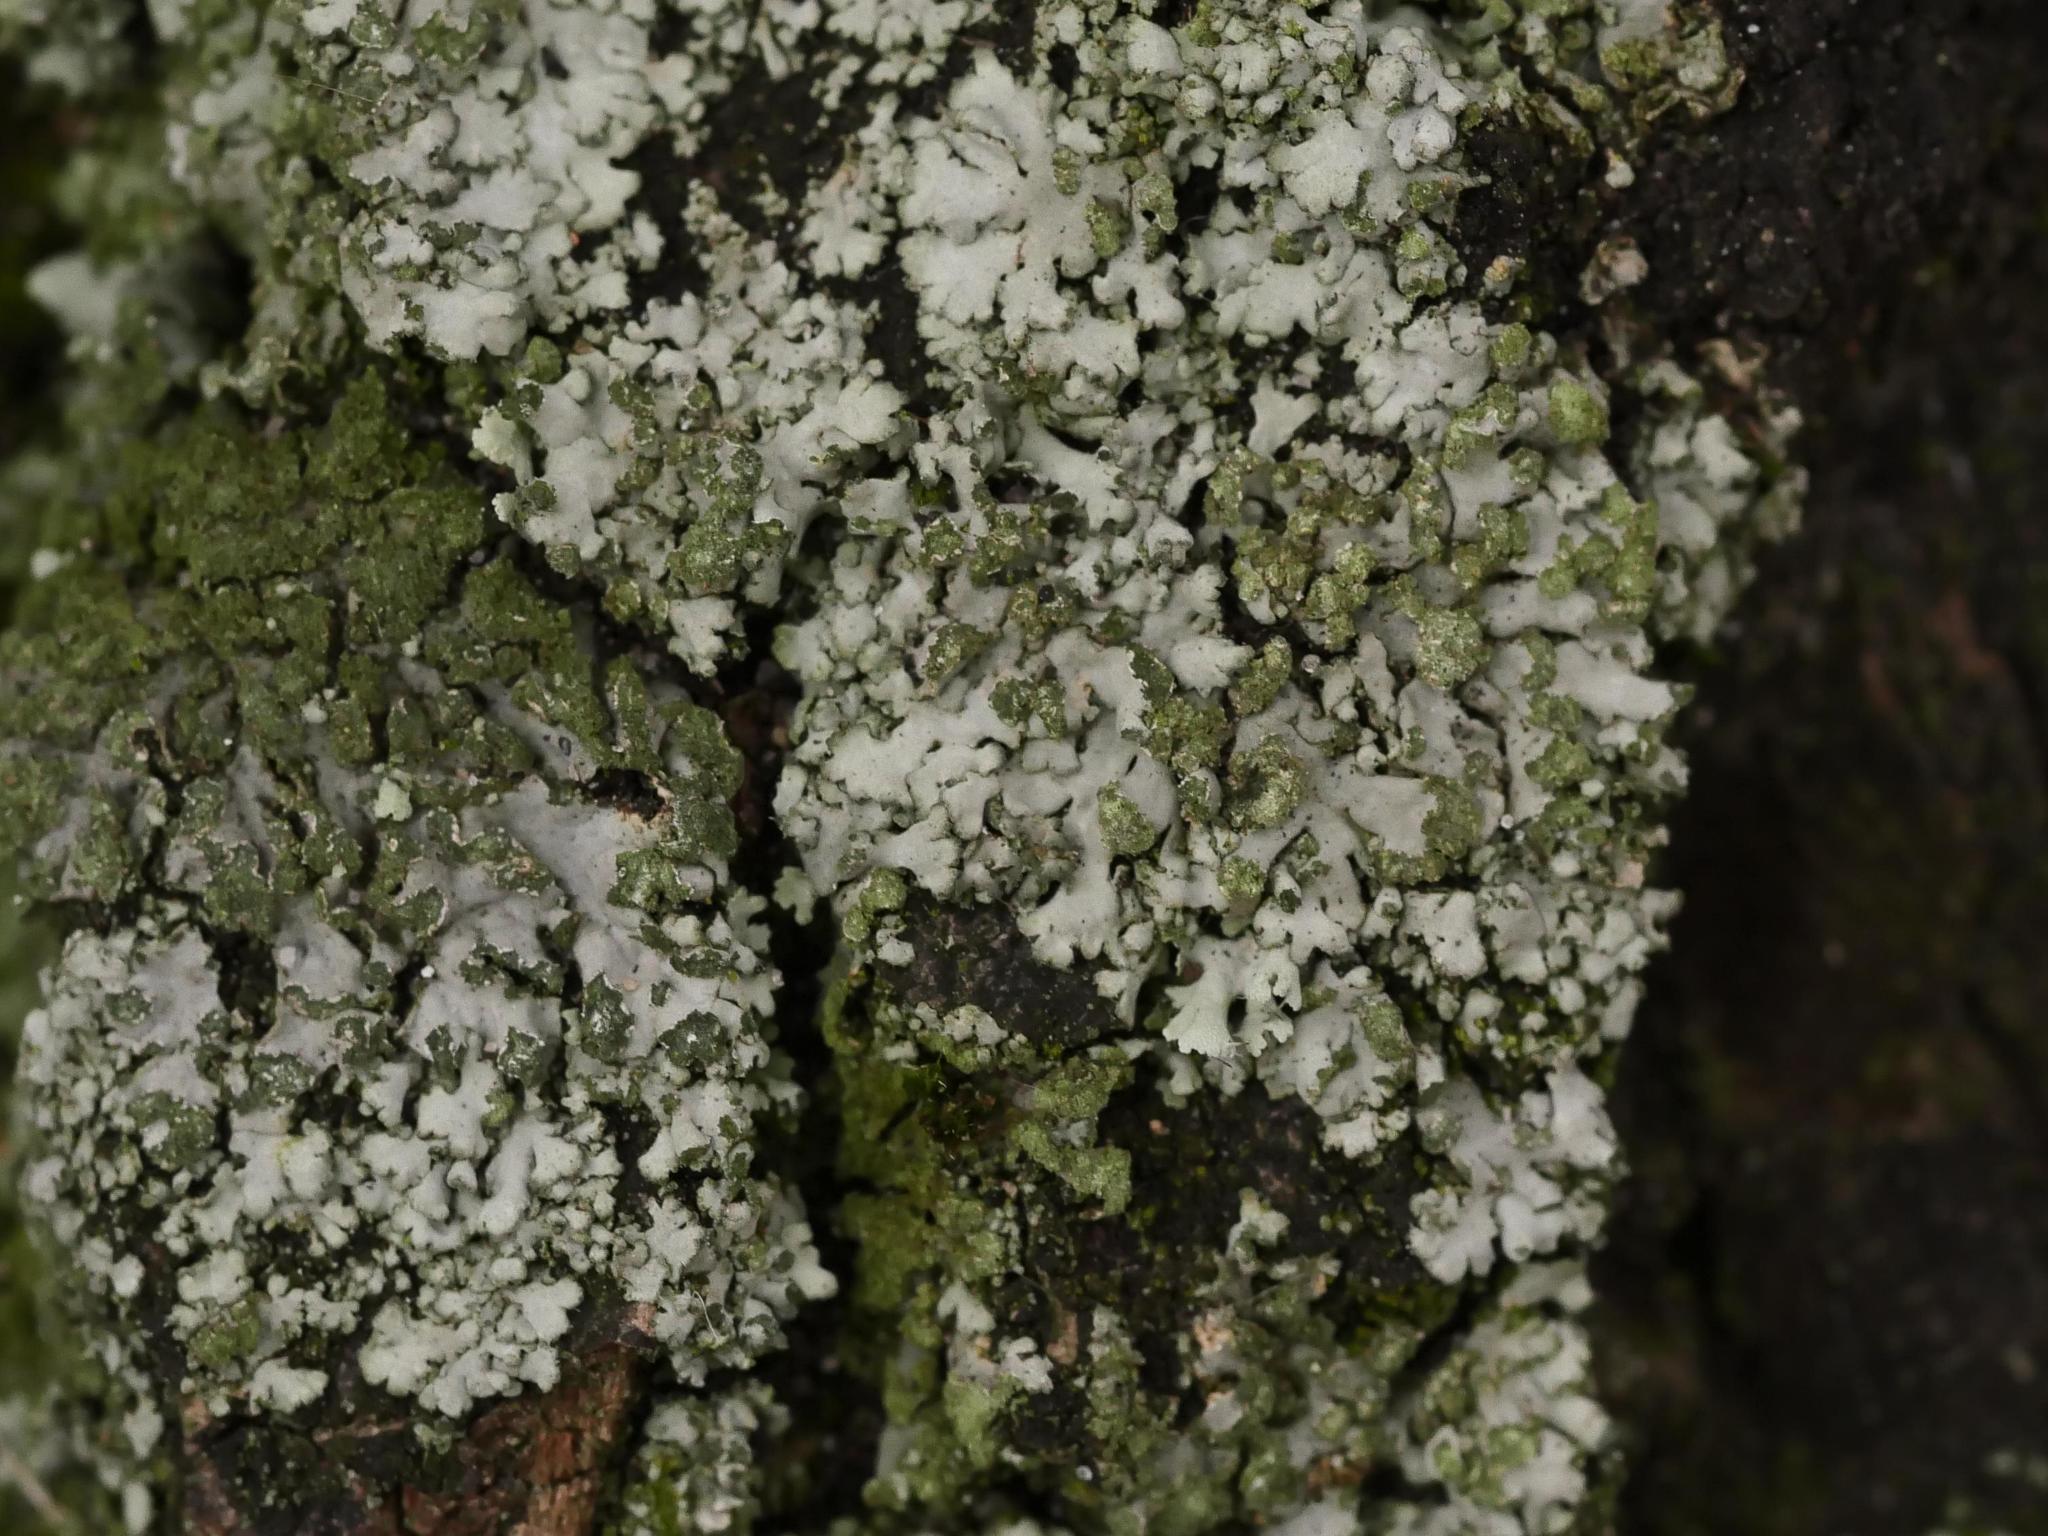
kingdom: Fungi
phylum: Ascomycota
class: Lecanoromycetes
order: Caliciales
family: Physciaceae
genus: Phaeophyscia
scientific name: Phaeophyscia orbicularis
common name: Mealy shadow lichen
